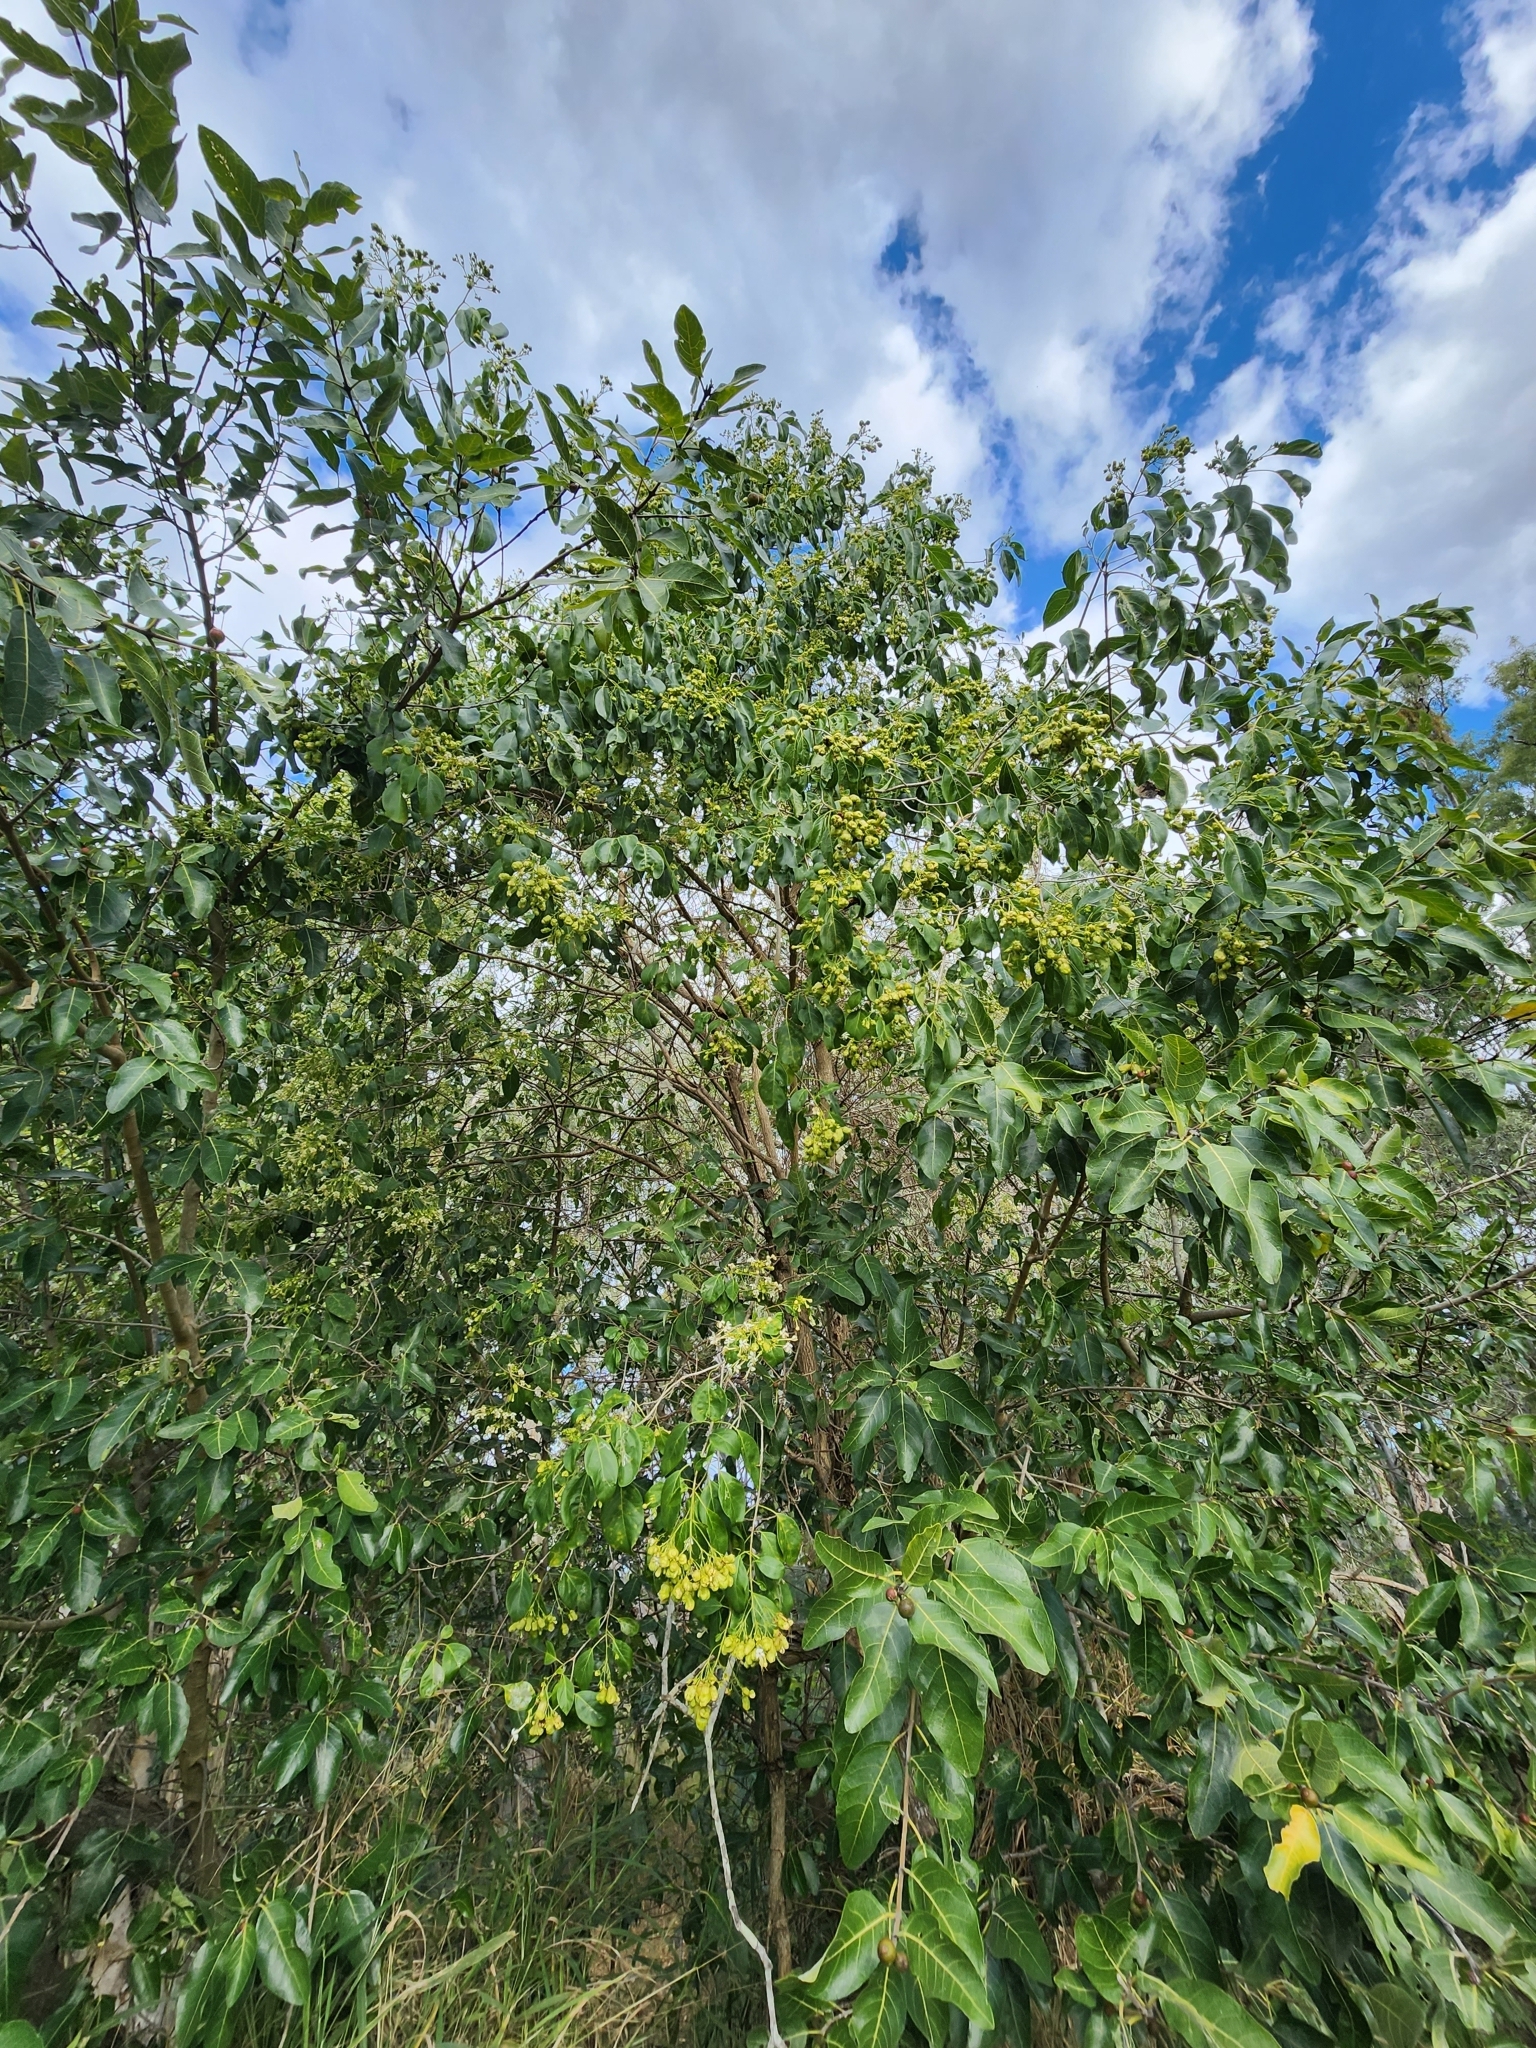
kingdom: Plantae
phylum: Tracheophyta
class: Magnoliopsida
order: Lamiales
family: Lamiaceae
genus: Clerodendrum
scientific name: Clerodendrum floribundum
